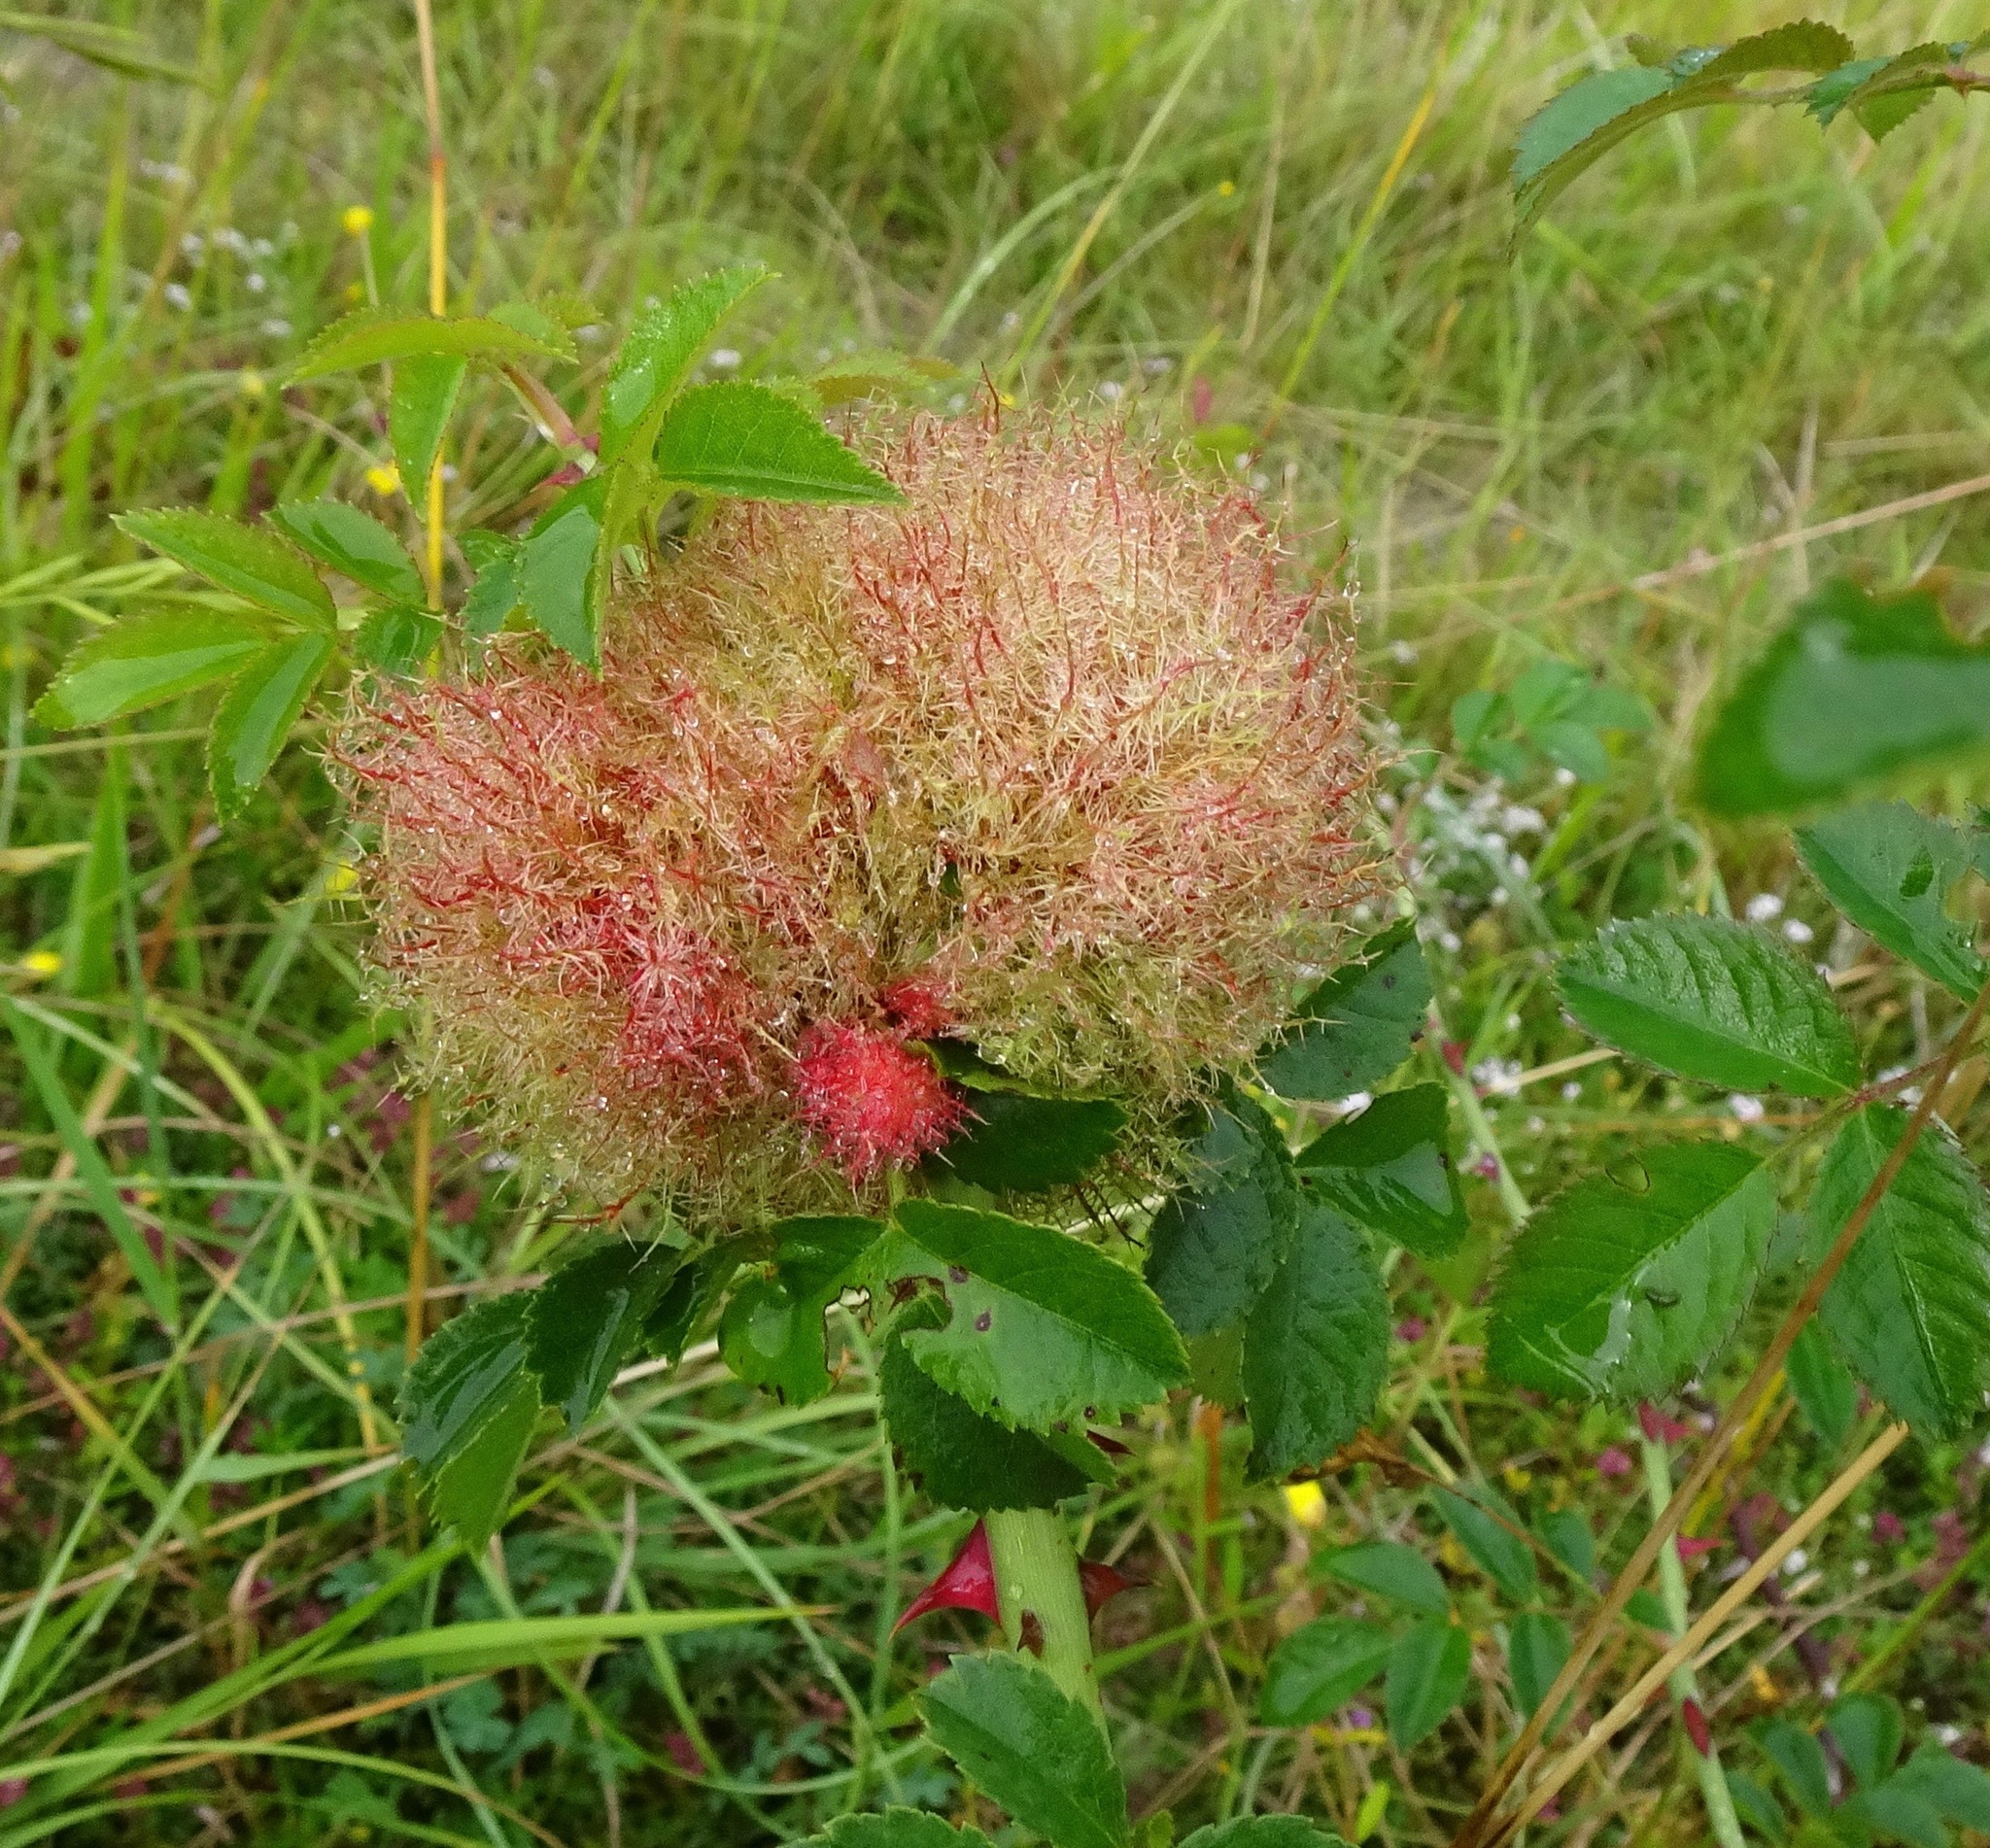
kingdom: Animalia
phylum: Arthropoda
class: Insecta
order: Hymenoptera
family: Cynipidae
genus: Diplolepis
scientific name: Diplolepis rosae
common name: Bedeguar gall
